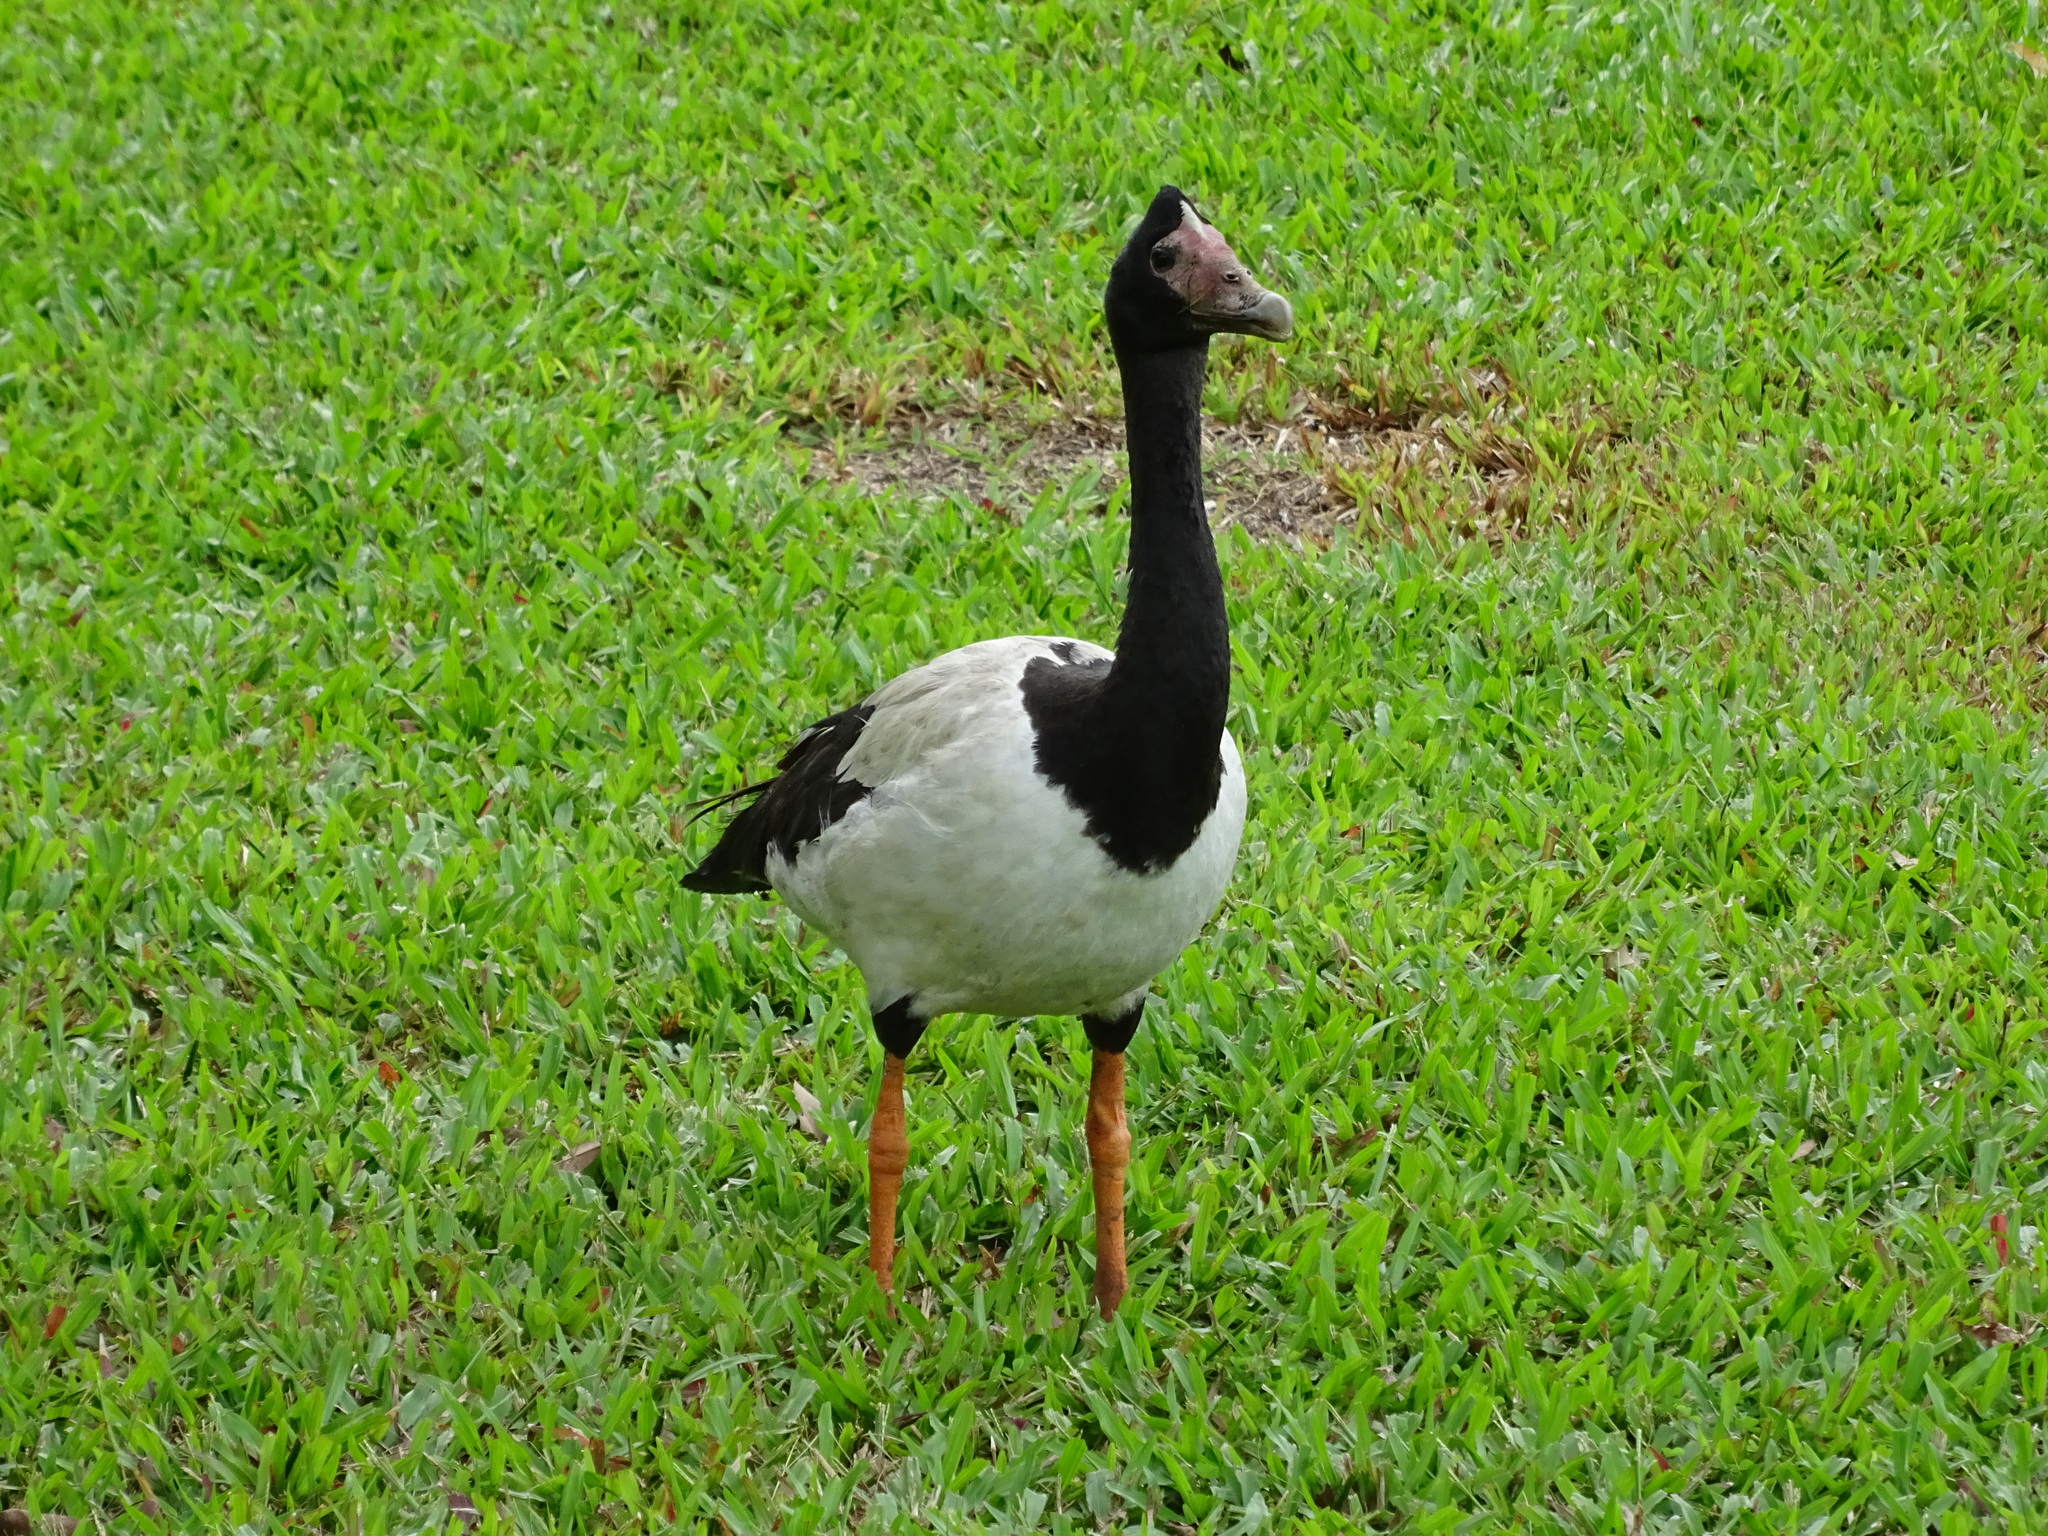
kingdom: Animalia
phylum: Chordata
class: Aves
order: Anseriformes
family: Anseranatidae
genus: Anseranas
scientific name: Anseranas semipalmata
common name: Magpie goose
